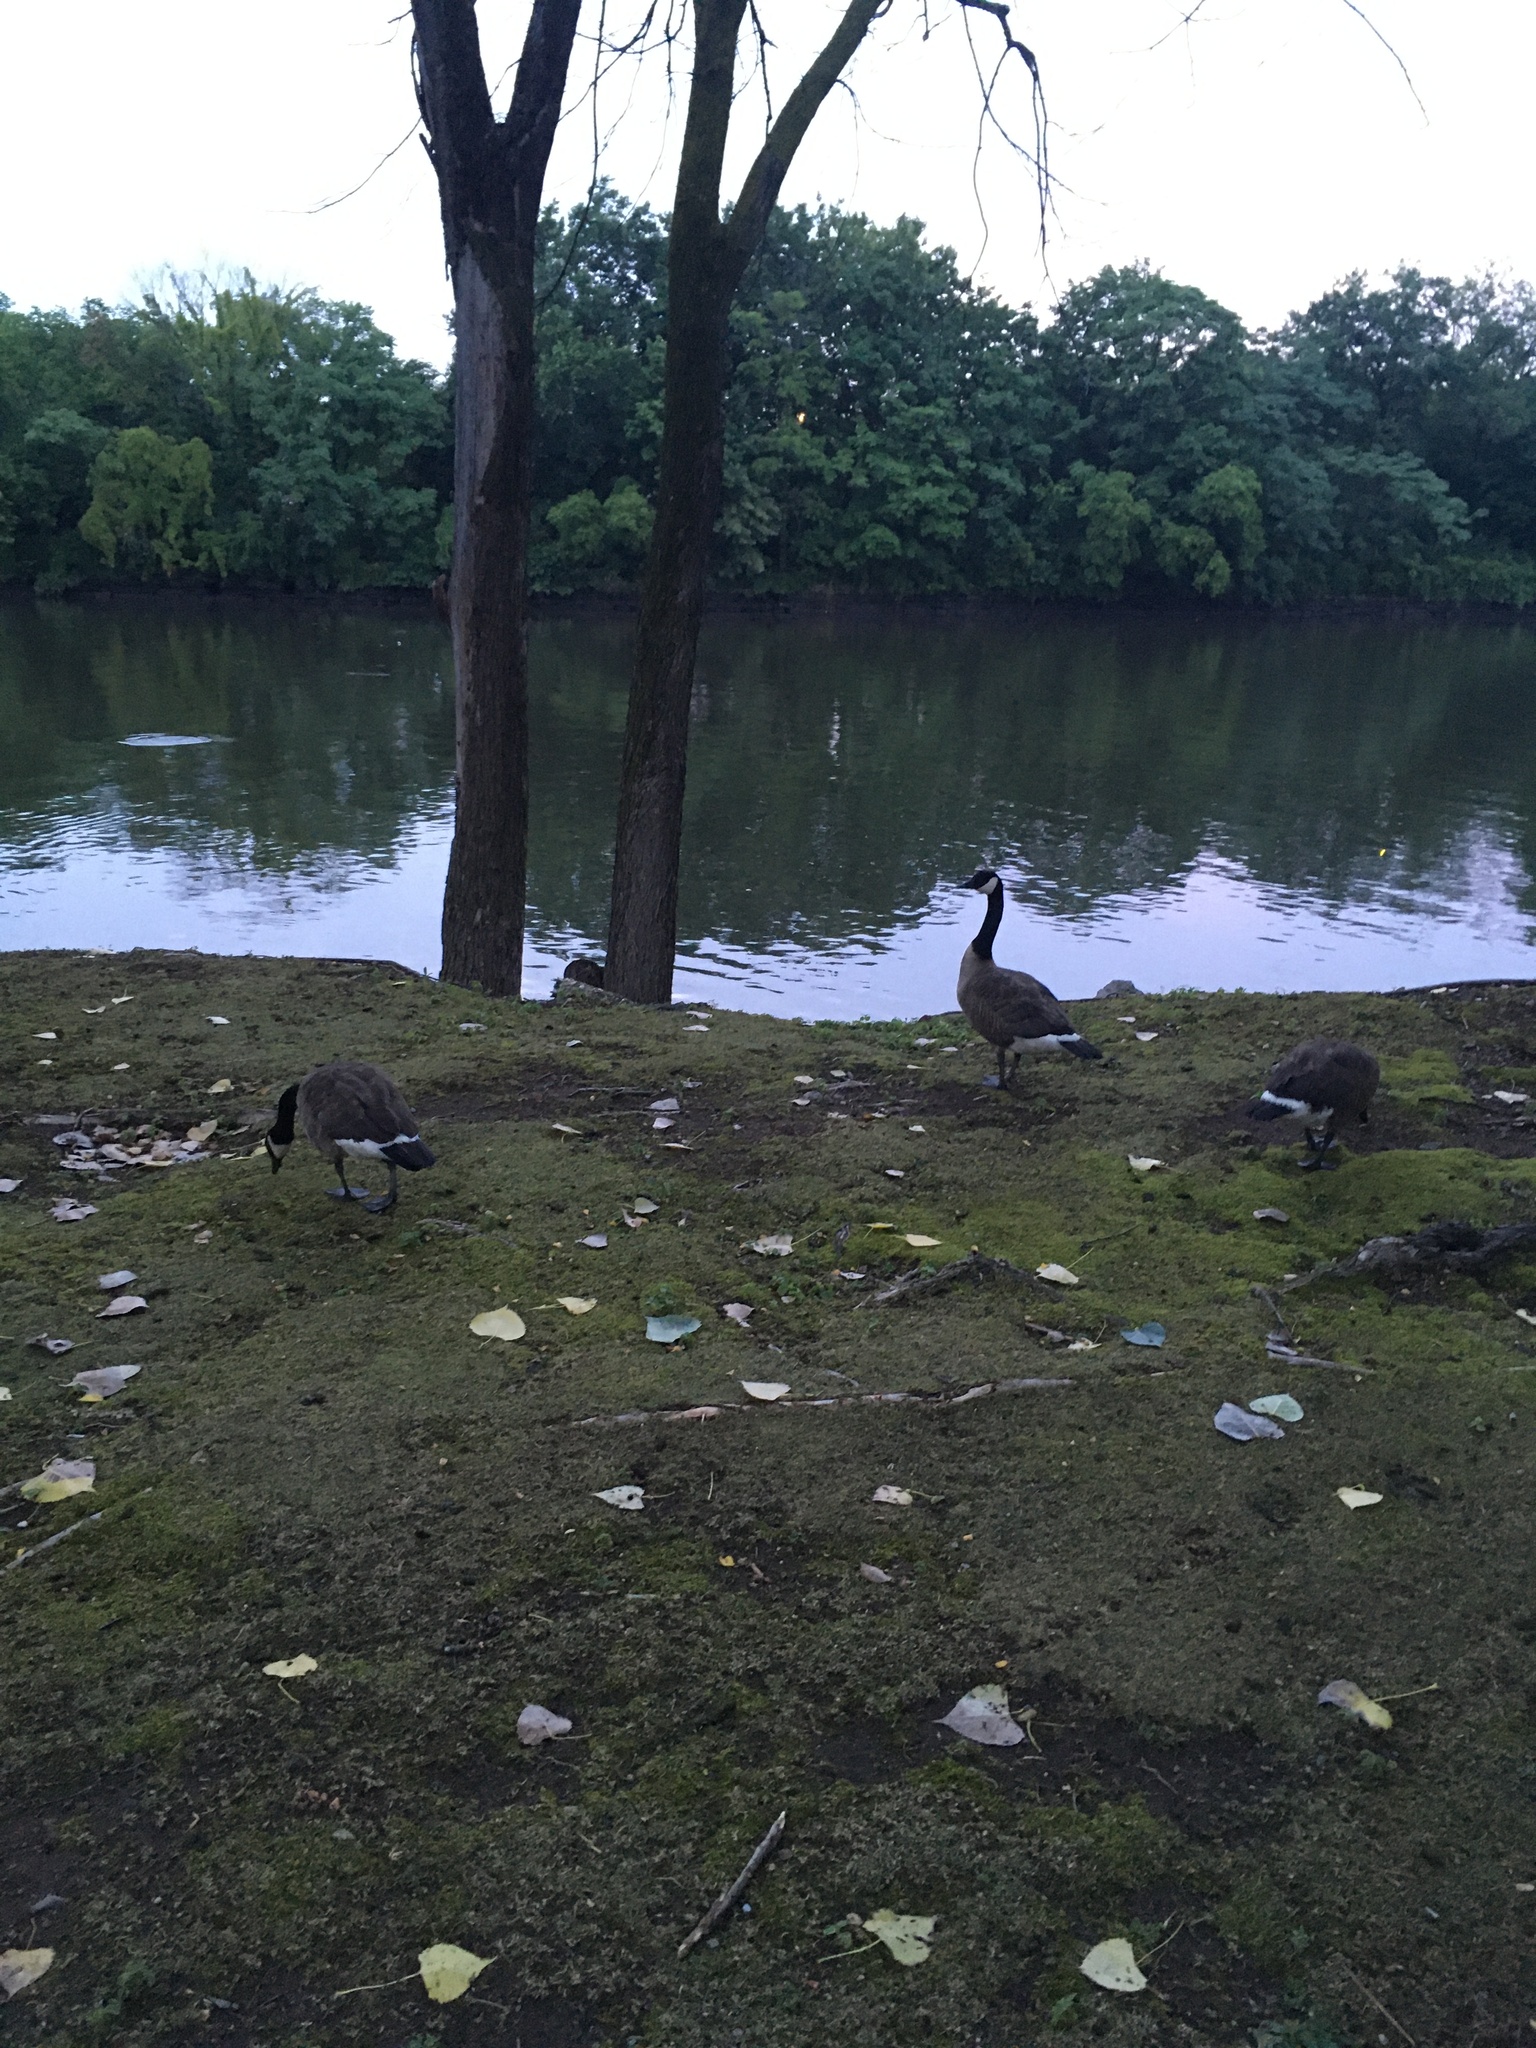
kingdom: Animalia
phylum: Chordata
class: Aves
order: Anseriformes
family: Anatidae
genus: Branta
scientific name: Branta canadensis
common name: Canada goose
